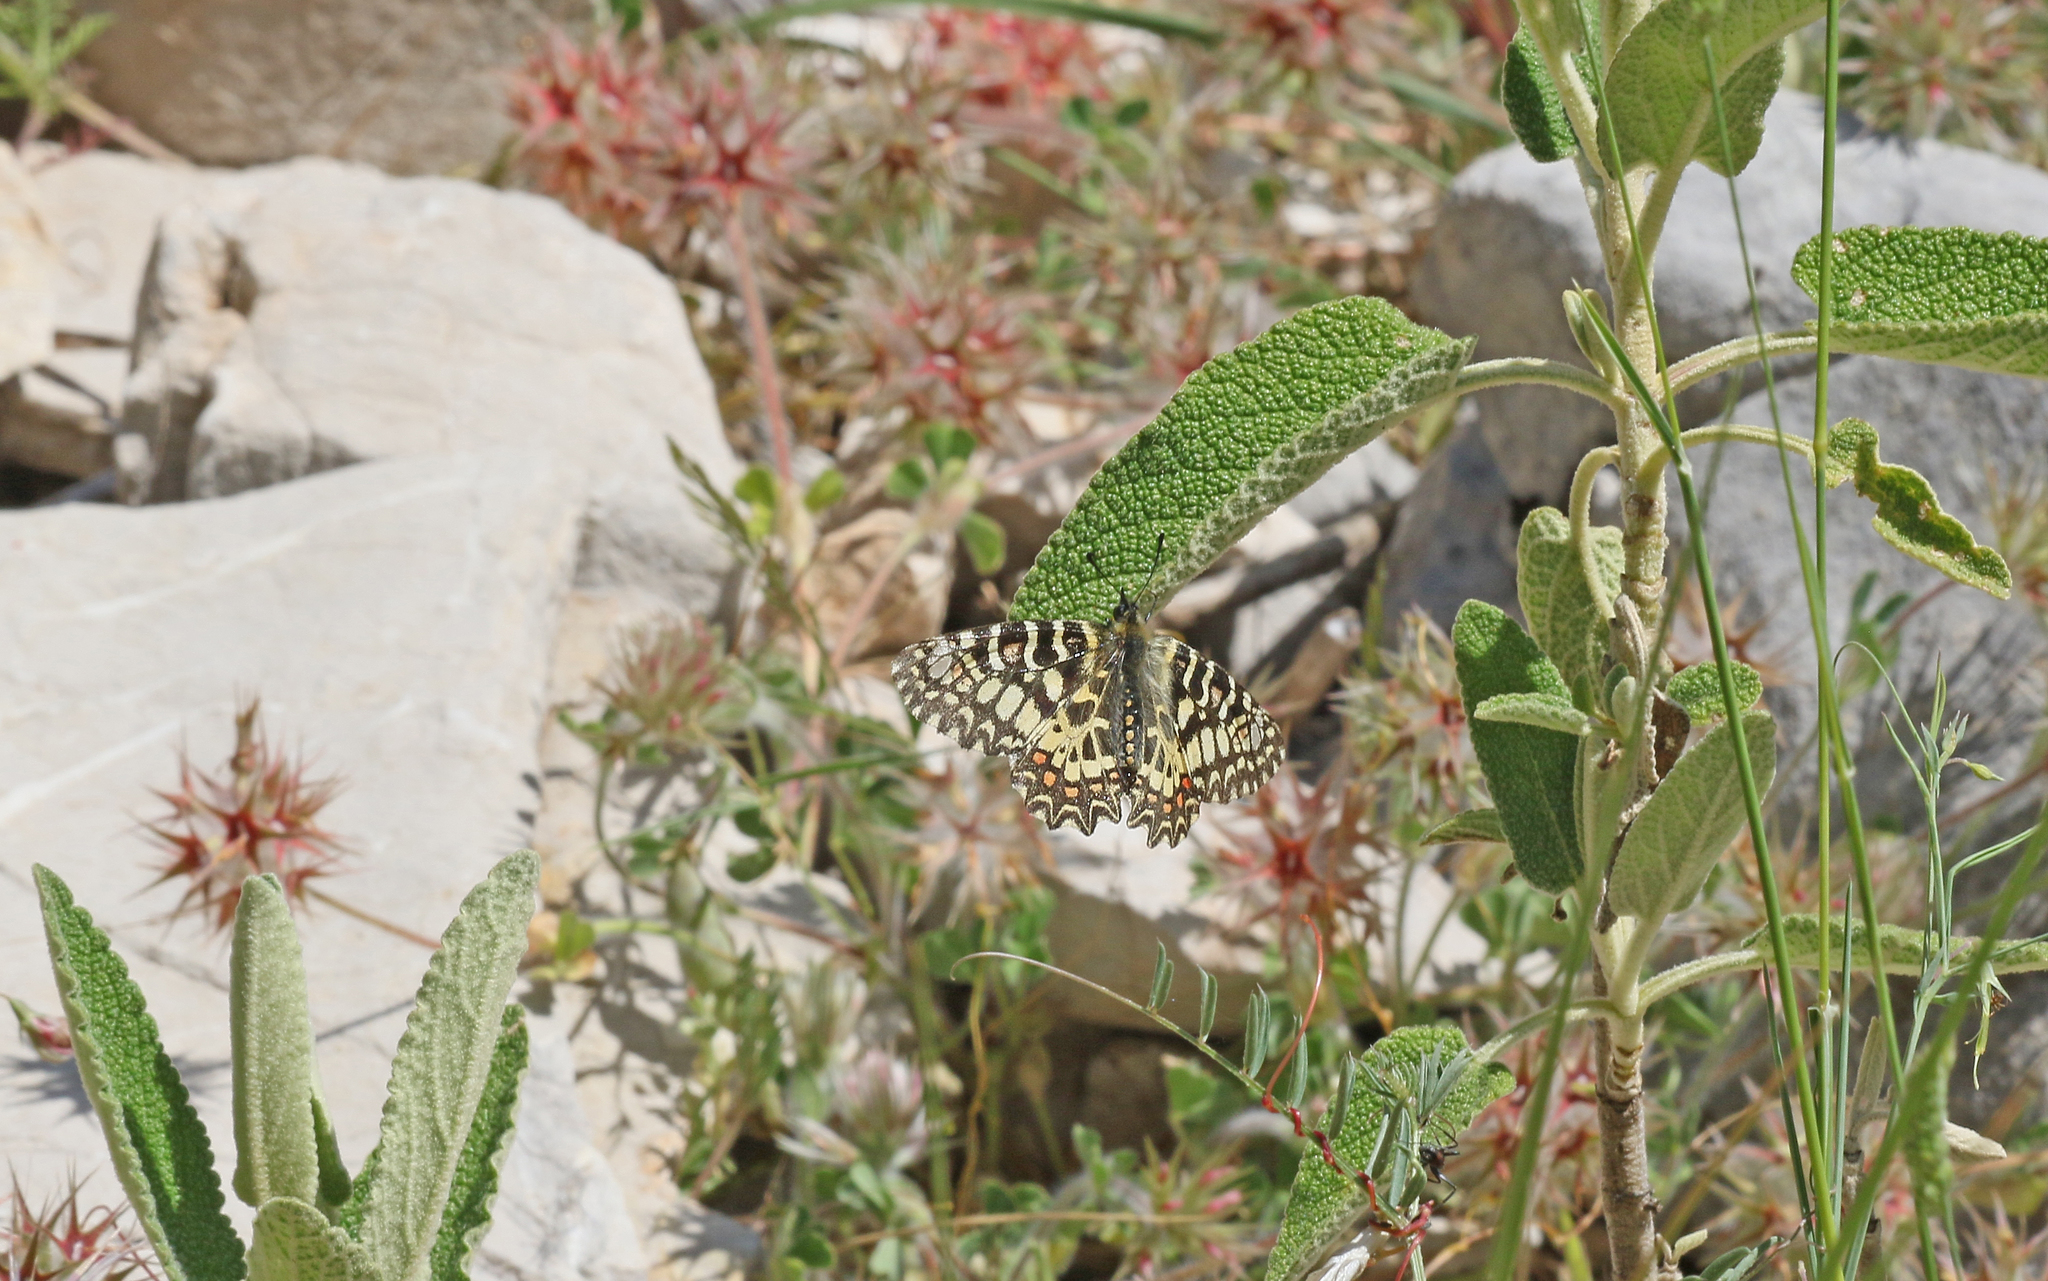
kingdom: Animalia
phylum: Arthropoda
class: Insecta
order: Lepidoptera
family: Papilionidae
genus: Zerynthia
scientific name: Zerynthia rumina
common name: Spanish festoon
